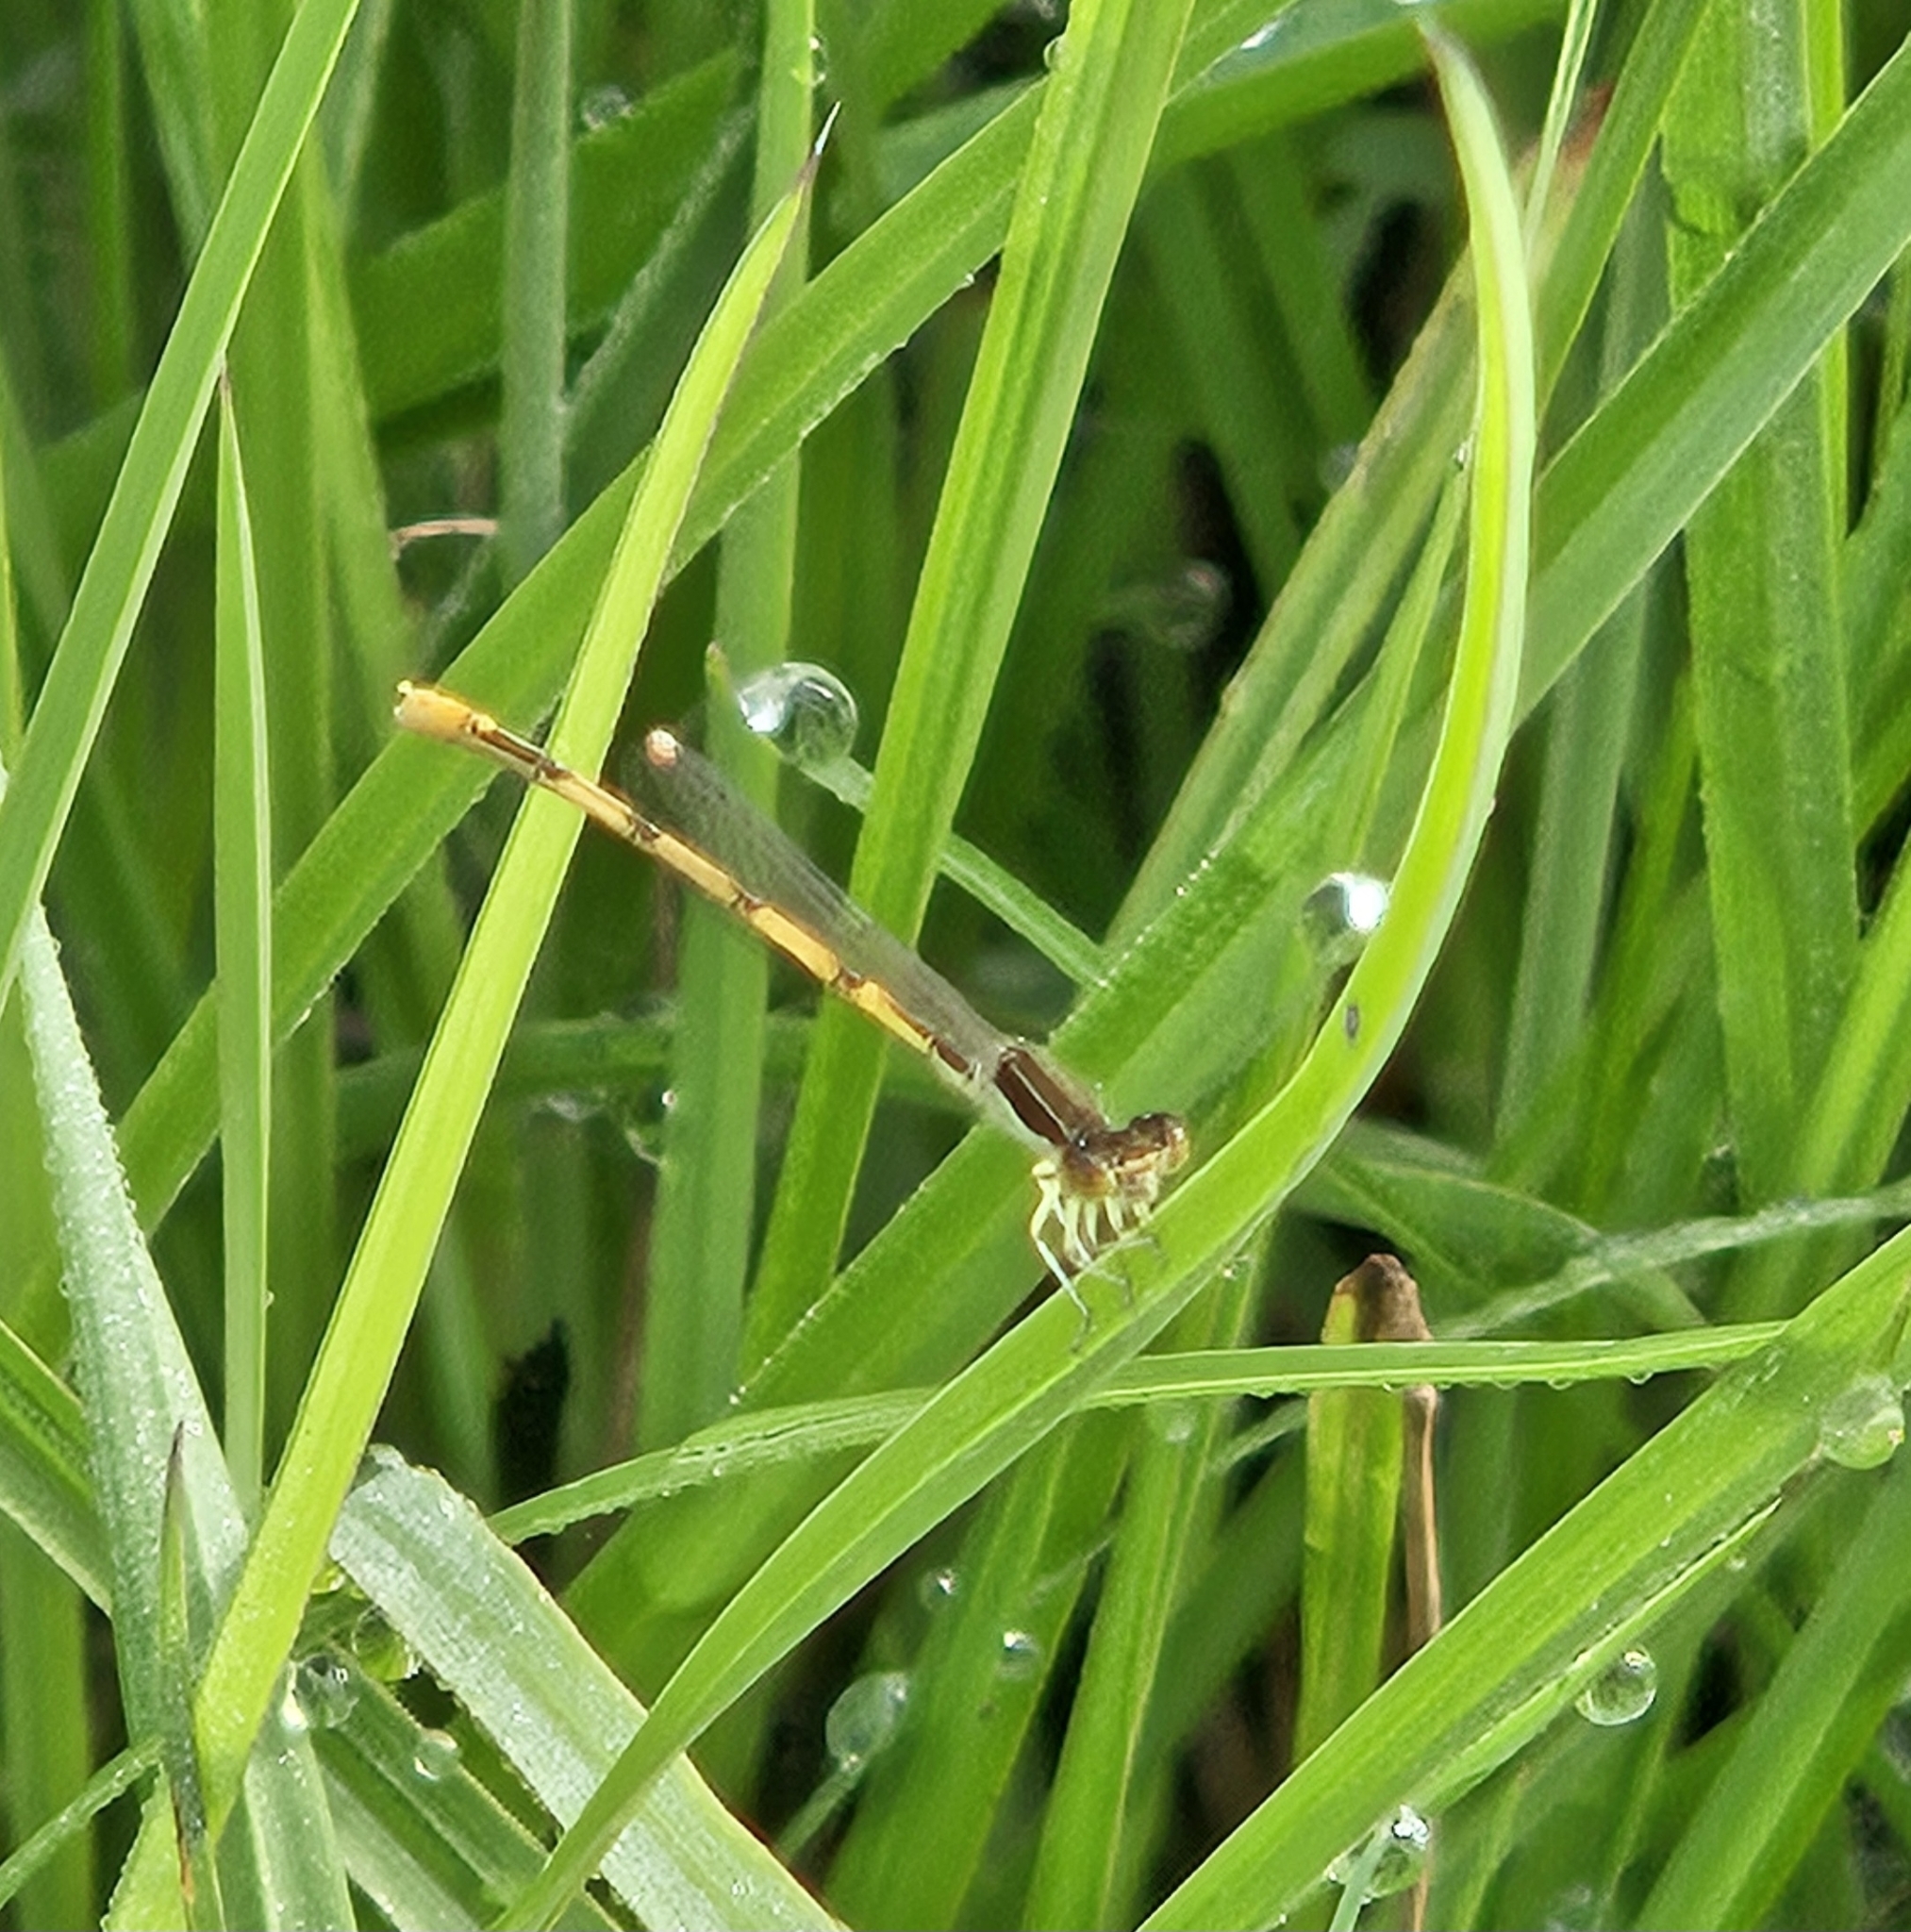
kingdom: Animalia
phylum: Arthropoda
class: Insecta
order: Odonata
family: Coenagrionidae
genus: Ischnura
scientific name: Ischnura hastata
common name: Citrine forktail
